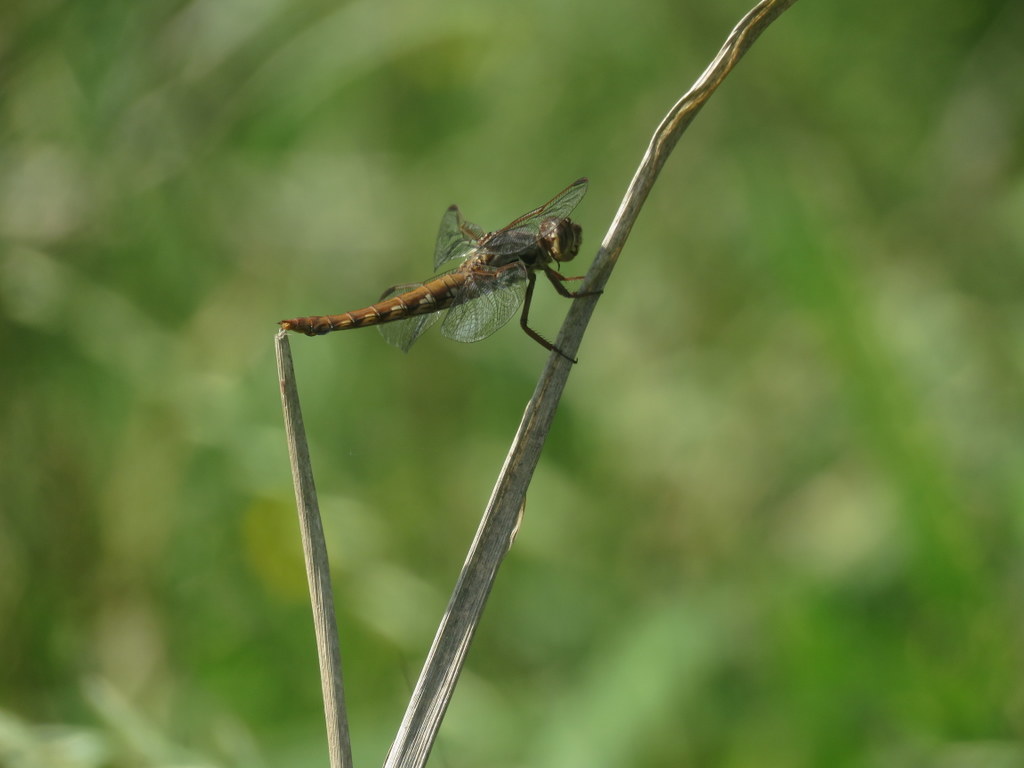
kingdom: Animalia
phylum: Arthropoda
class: Insecta
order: Odonata
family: Libellulidae
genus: Orthemis
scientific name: Orthemis nodiplaga
